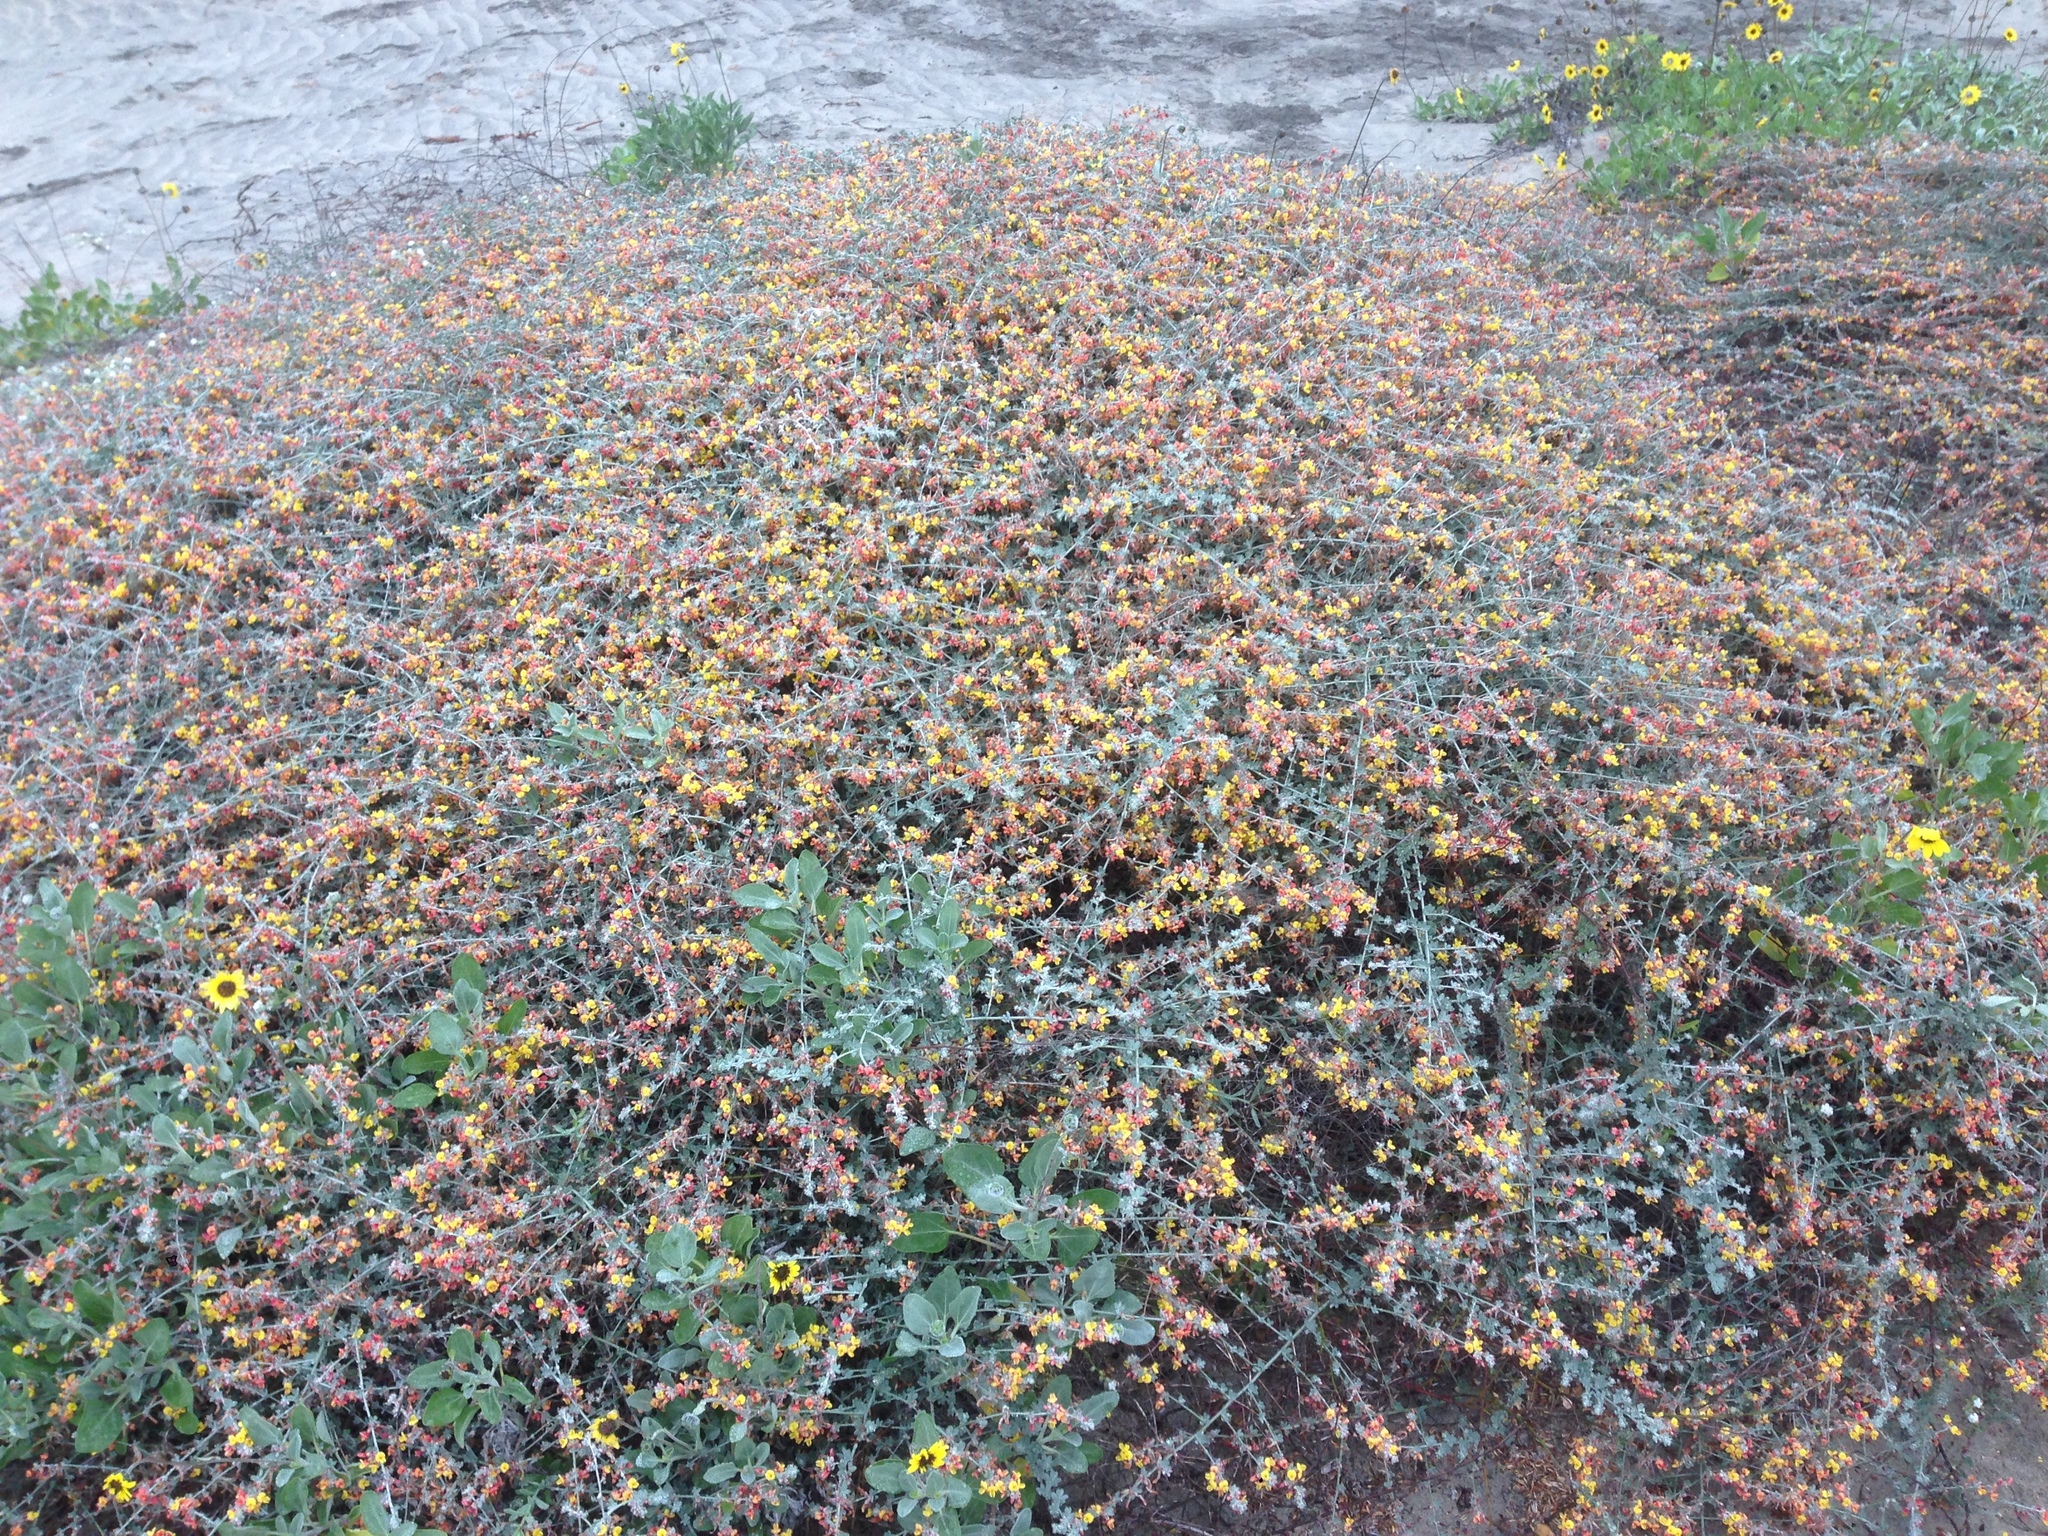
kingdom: Plantae
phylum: Tracheophyta
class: Magnoliopsida
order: Fabales
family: Fabaceae
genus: Acmispon
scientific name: Acmispon distichus
